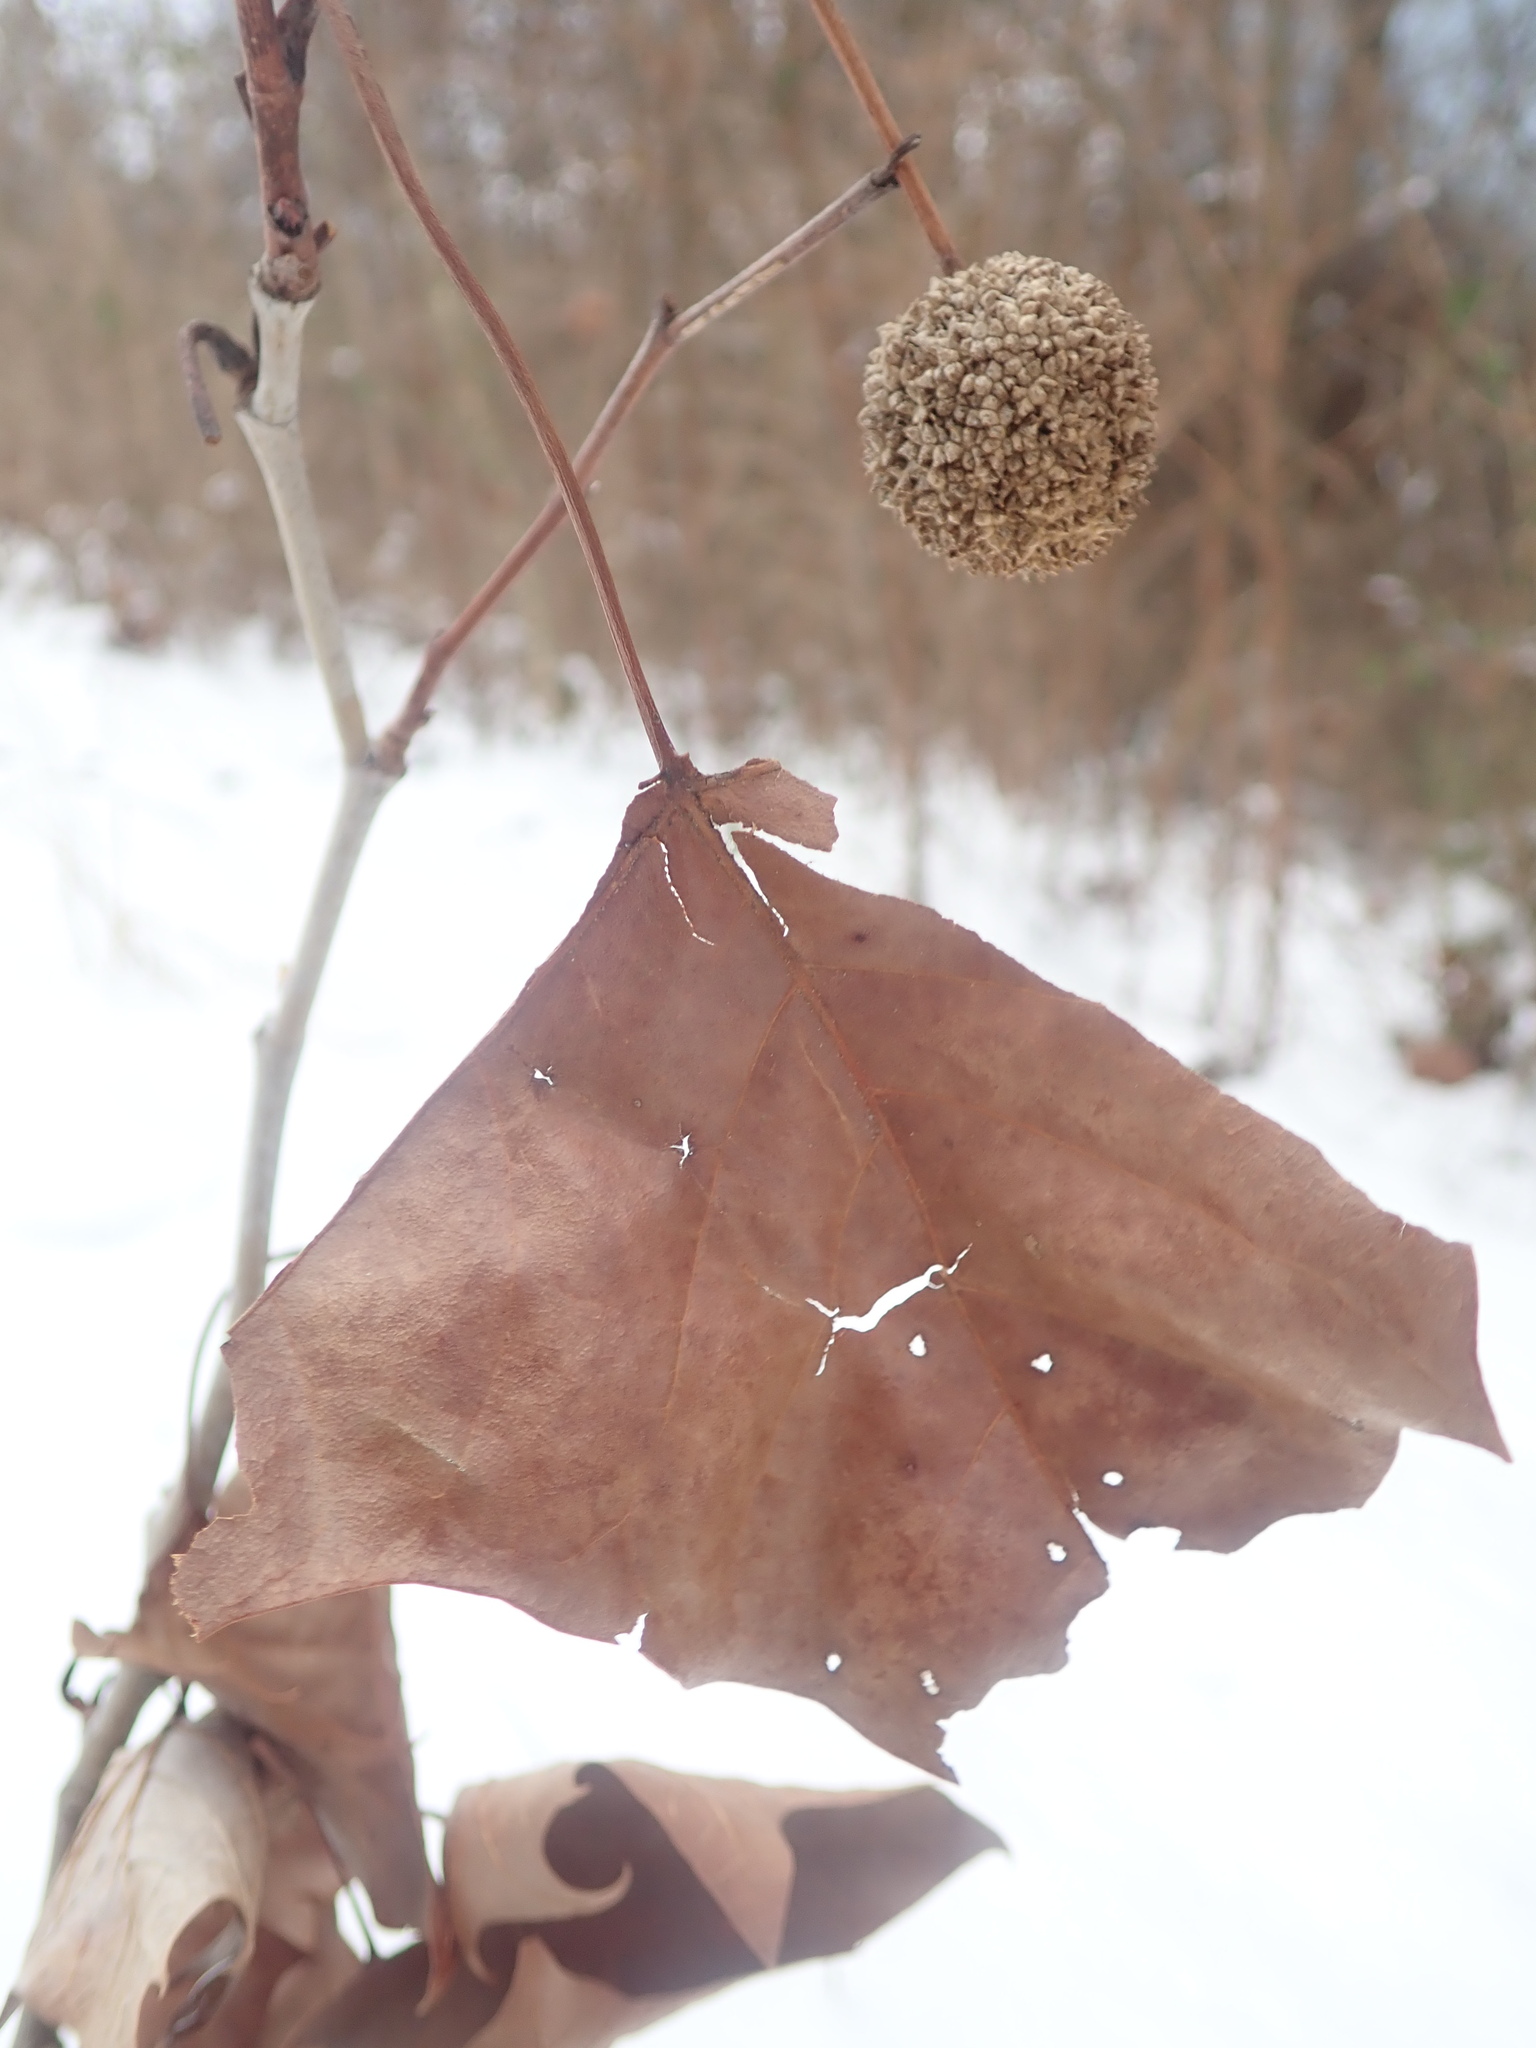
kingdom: Plantae
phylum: Tracheophyta
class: Magnoliopsida
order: Proteales
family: Platanaceae
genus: Platanus
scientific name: Platanus occidentalis
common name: American sycamore
